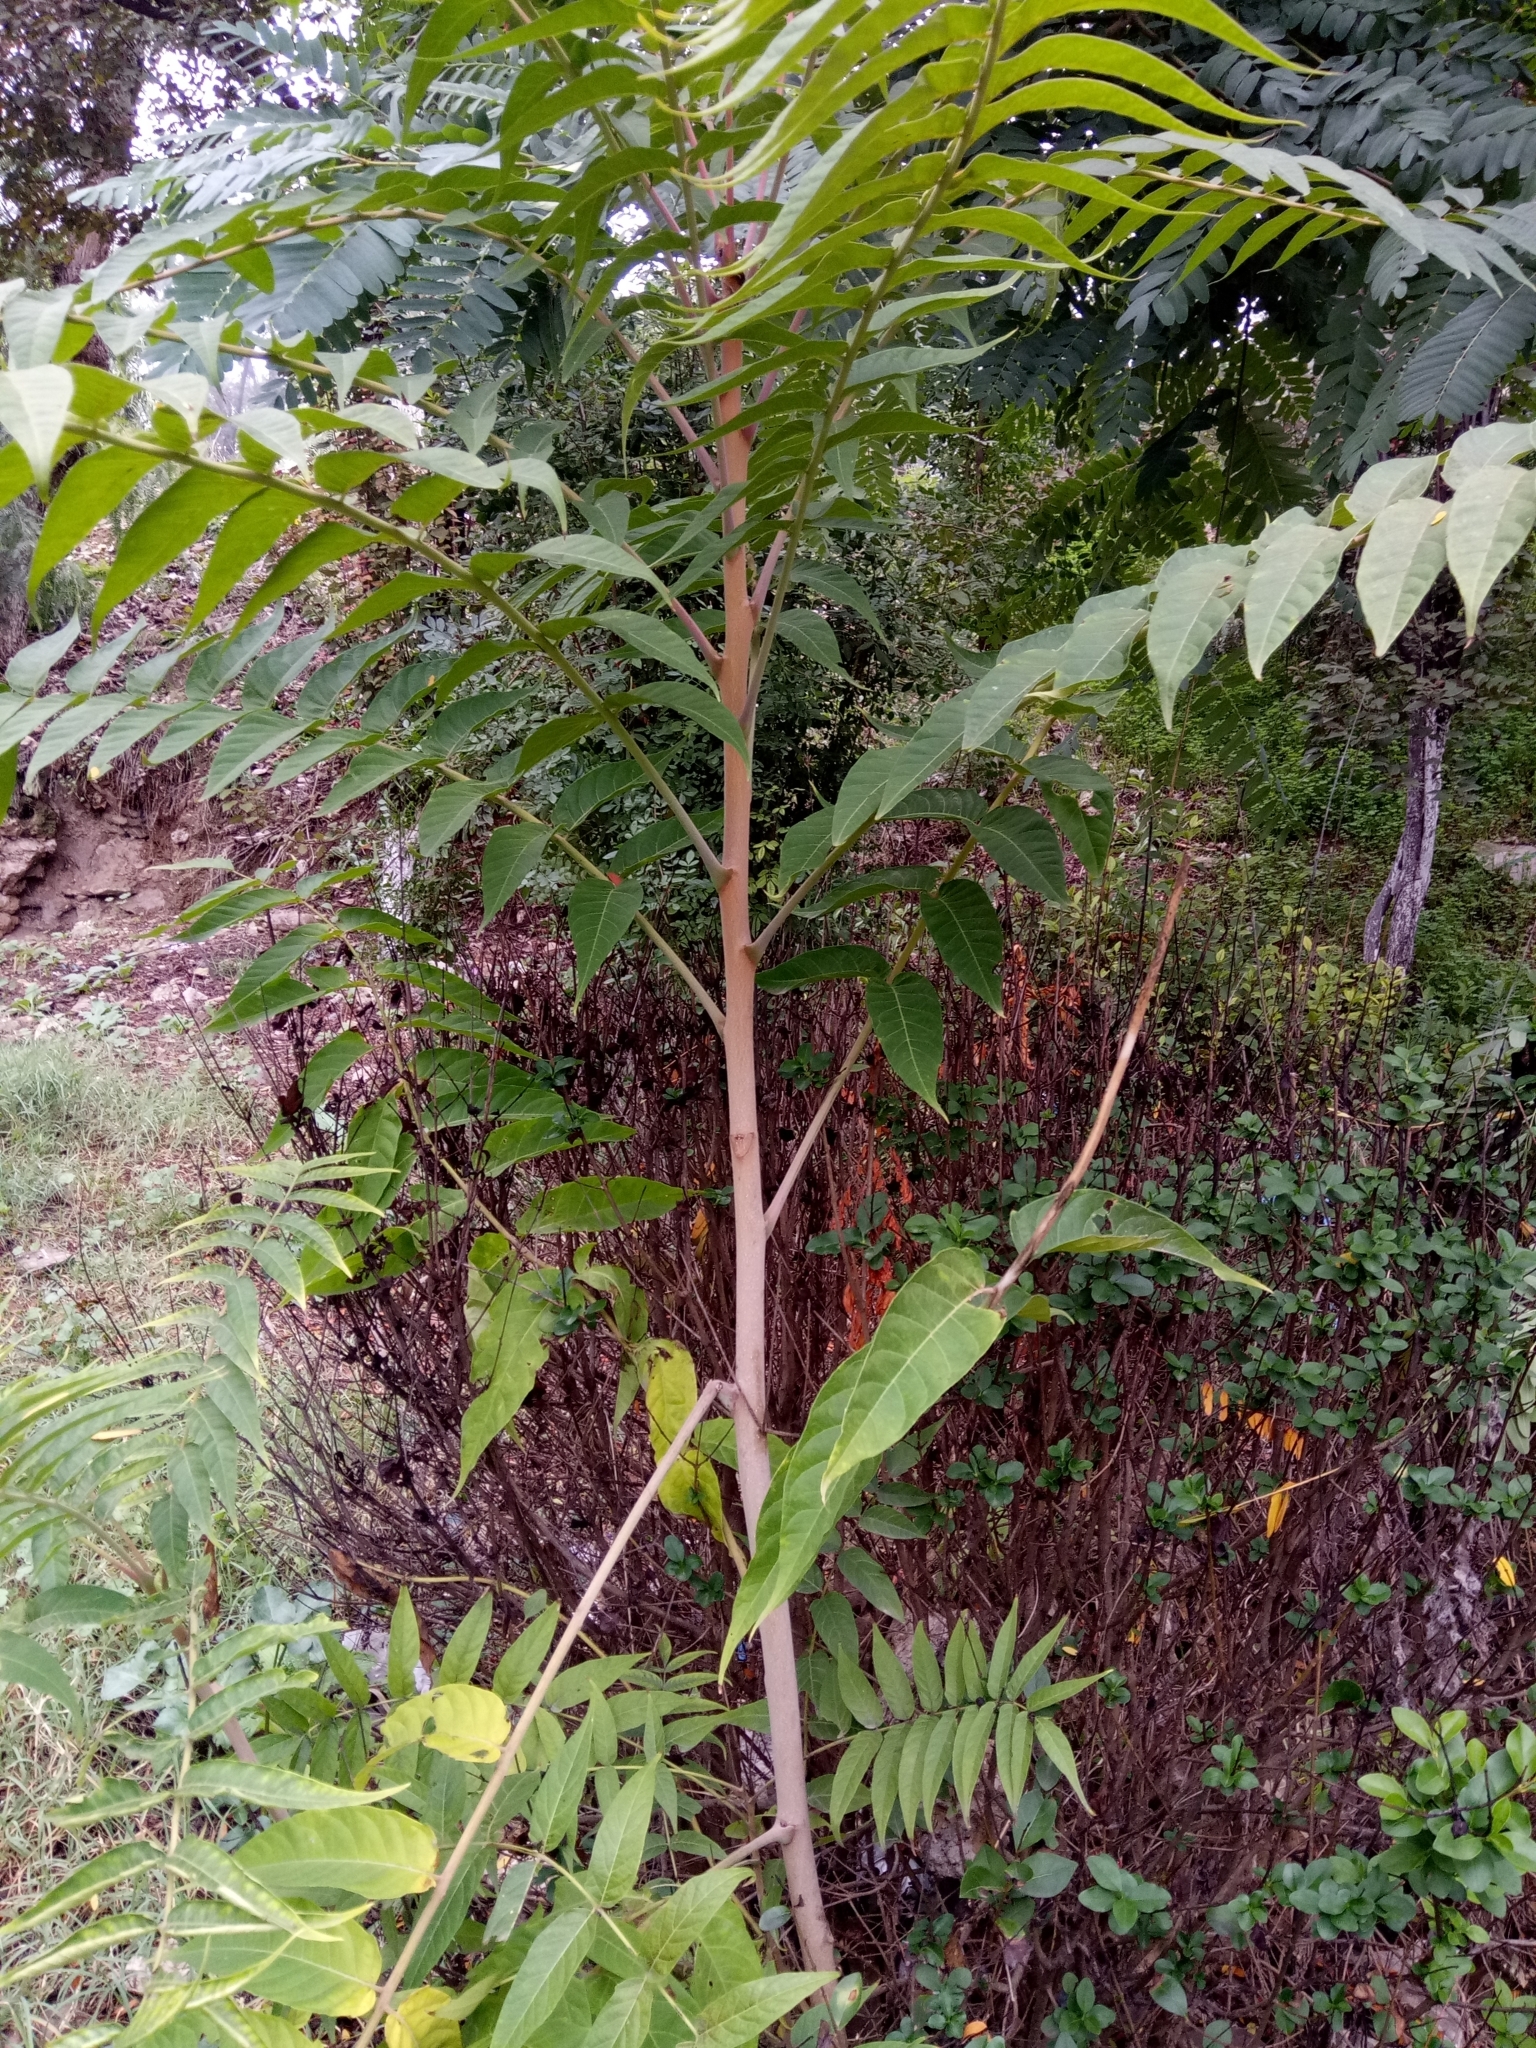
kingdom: Plantae
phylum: Tracheophyta
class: Magnoliopsida
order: Sapindales
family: Simaroubaceae
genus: Ailanthus
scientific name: Ailanthus altissima
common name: Tree-of-heaven
